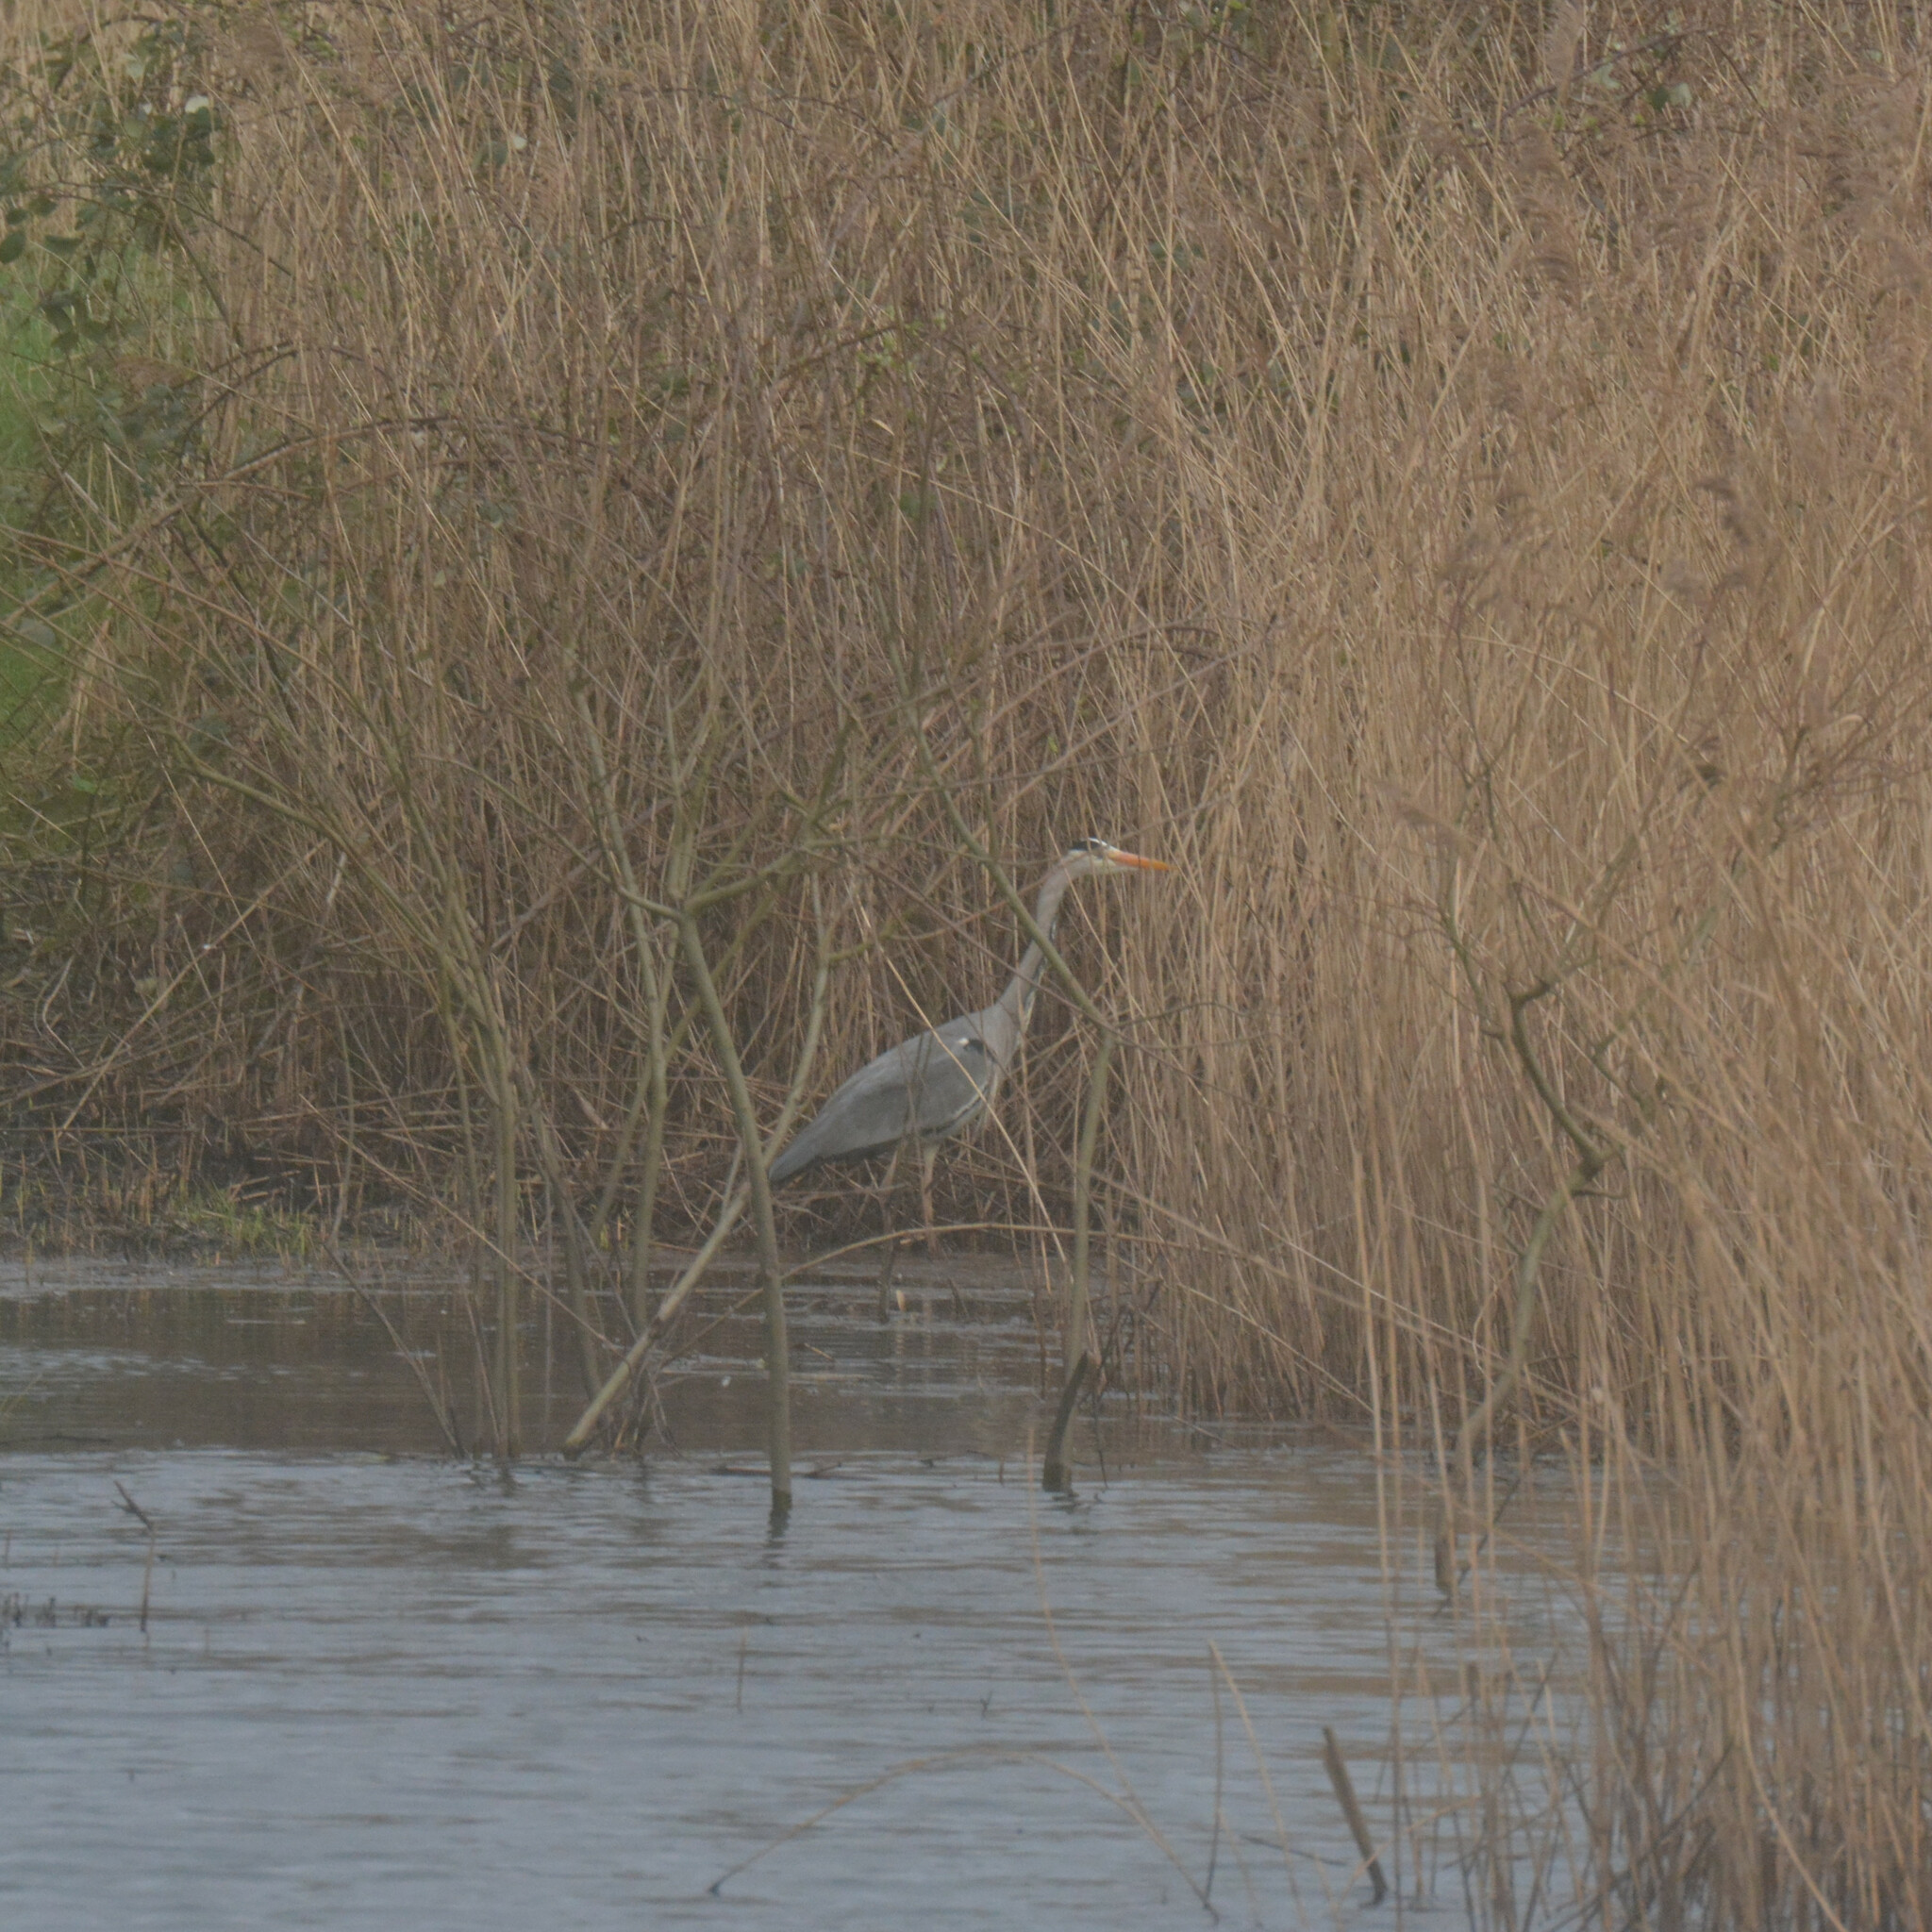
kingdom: Animalia
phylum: Chordata
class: Aves
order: Pelecaniformes
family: Ardeidae
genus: Ardea
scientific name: Ardea cinerea
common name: Grey heron
